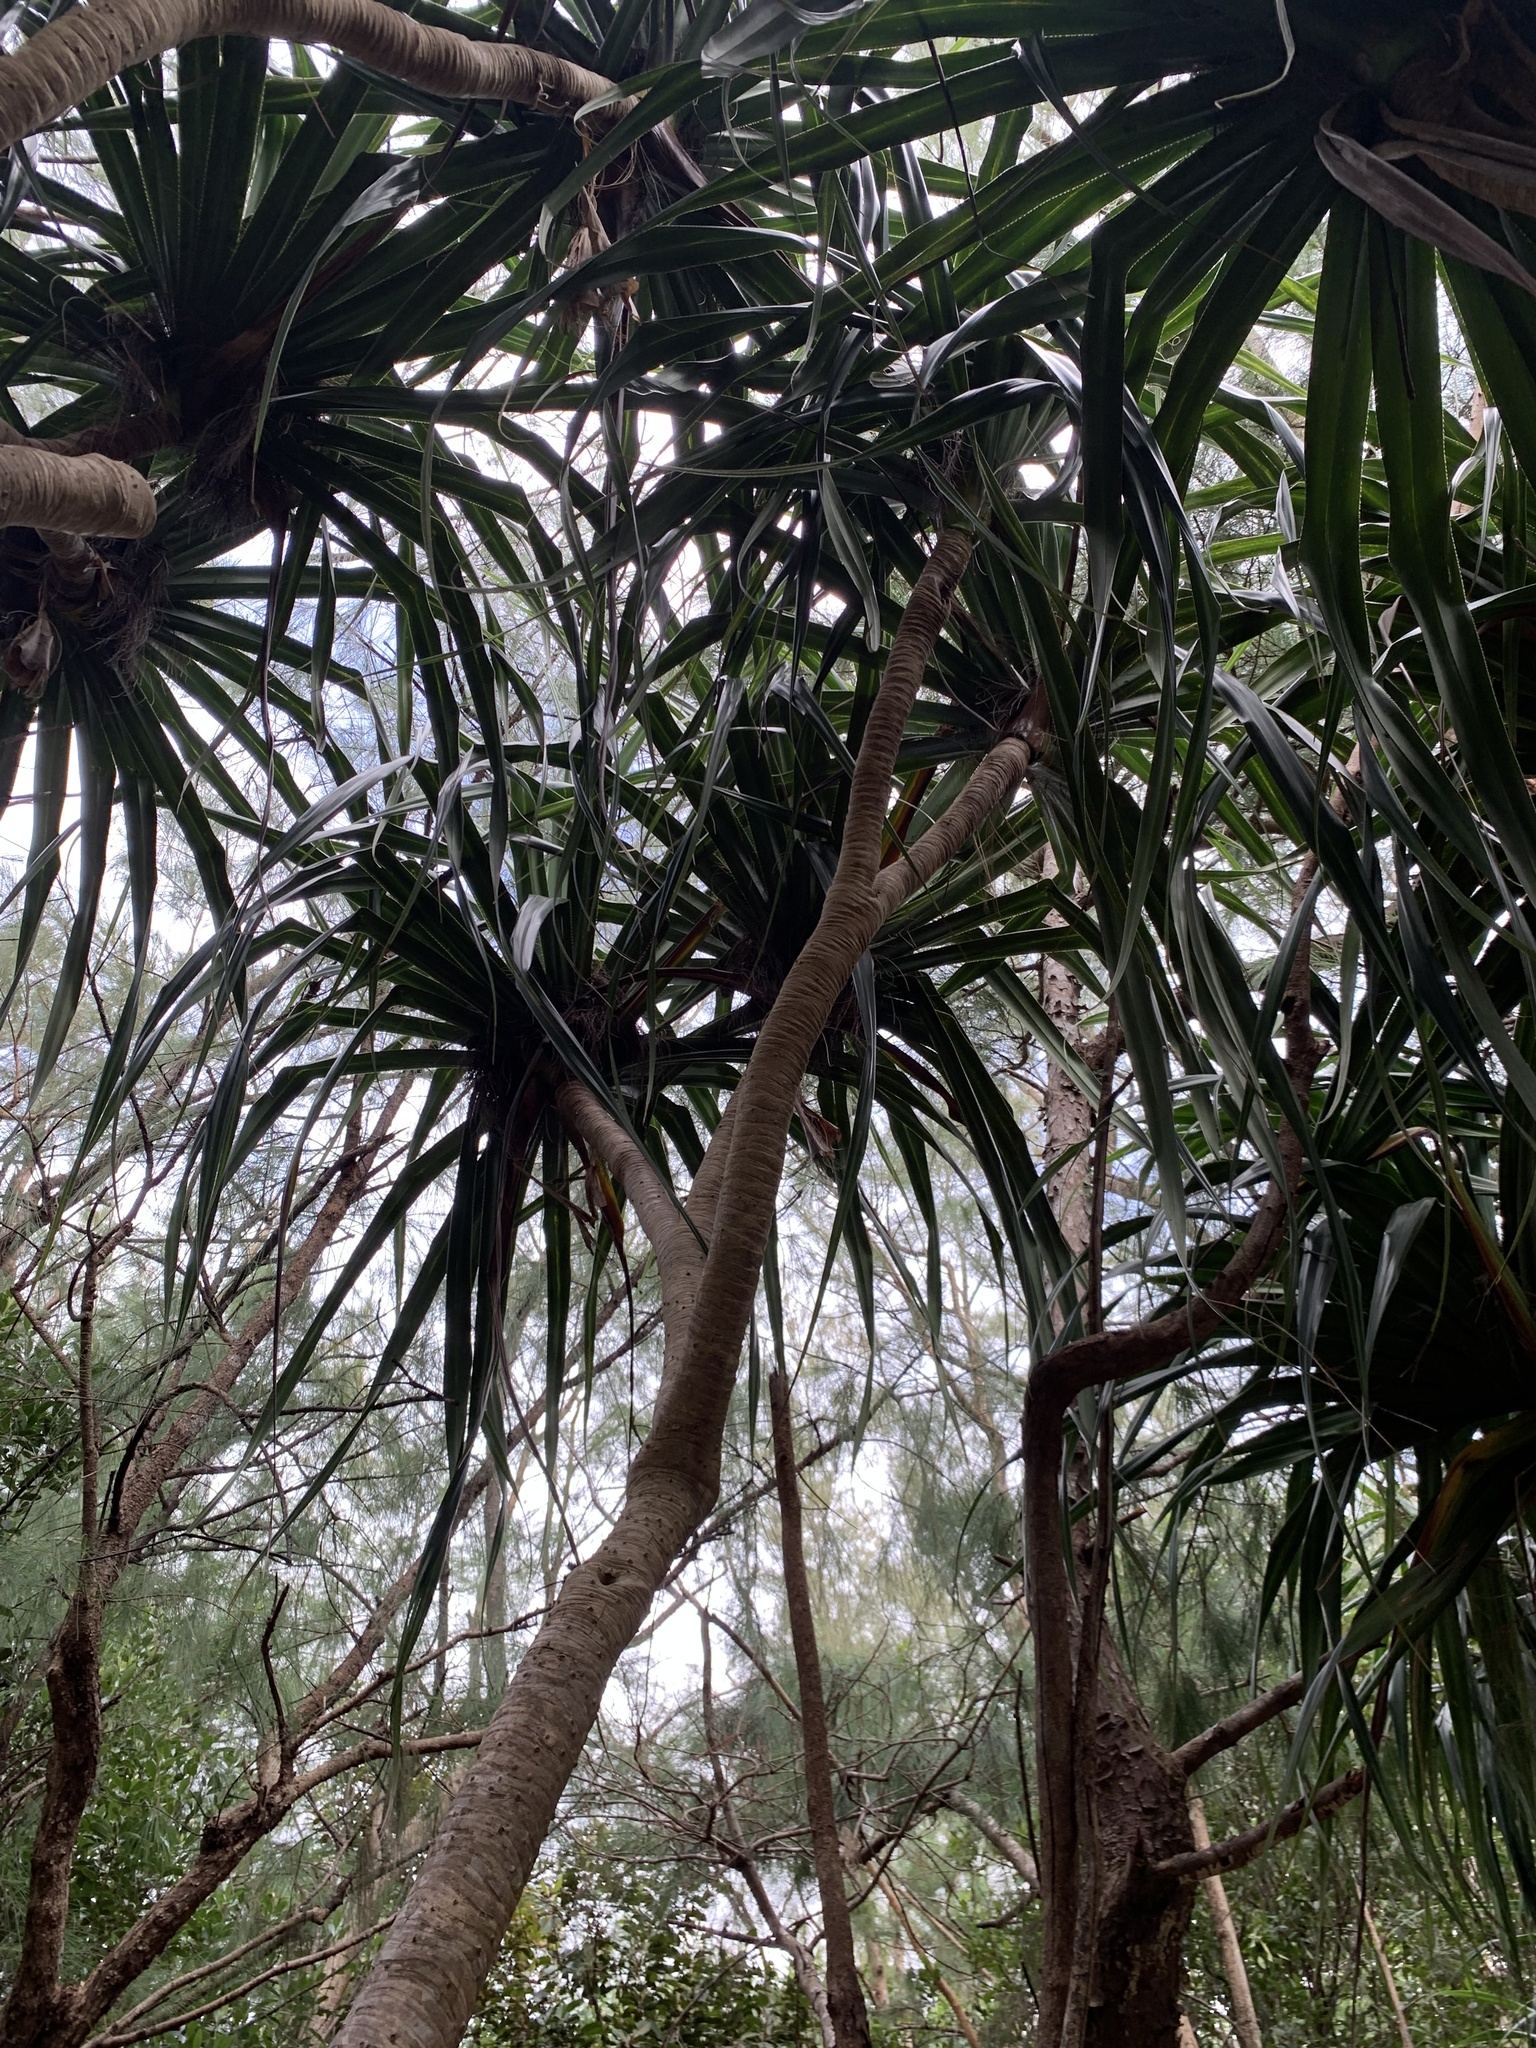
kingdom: Plantae
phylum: Tracheophyta
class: Liliopsida
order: Pandanales
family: Pandanaceae
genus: Pandanus
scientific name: Pandanus boninensis
